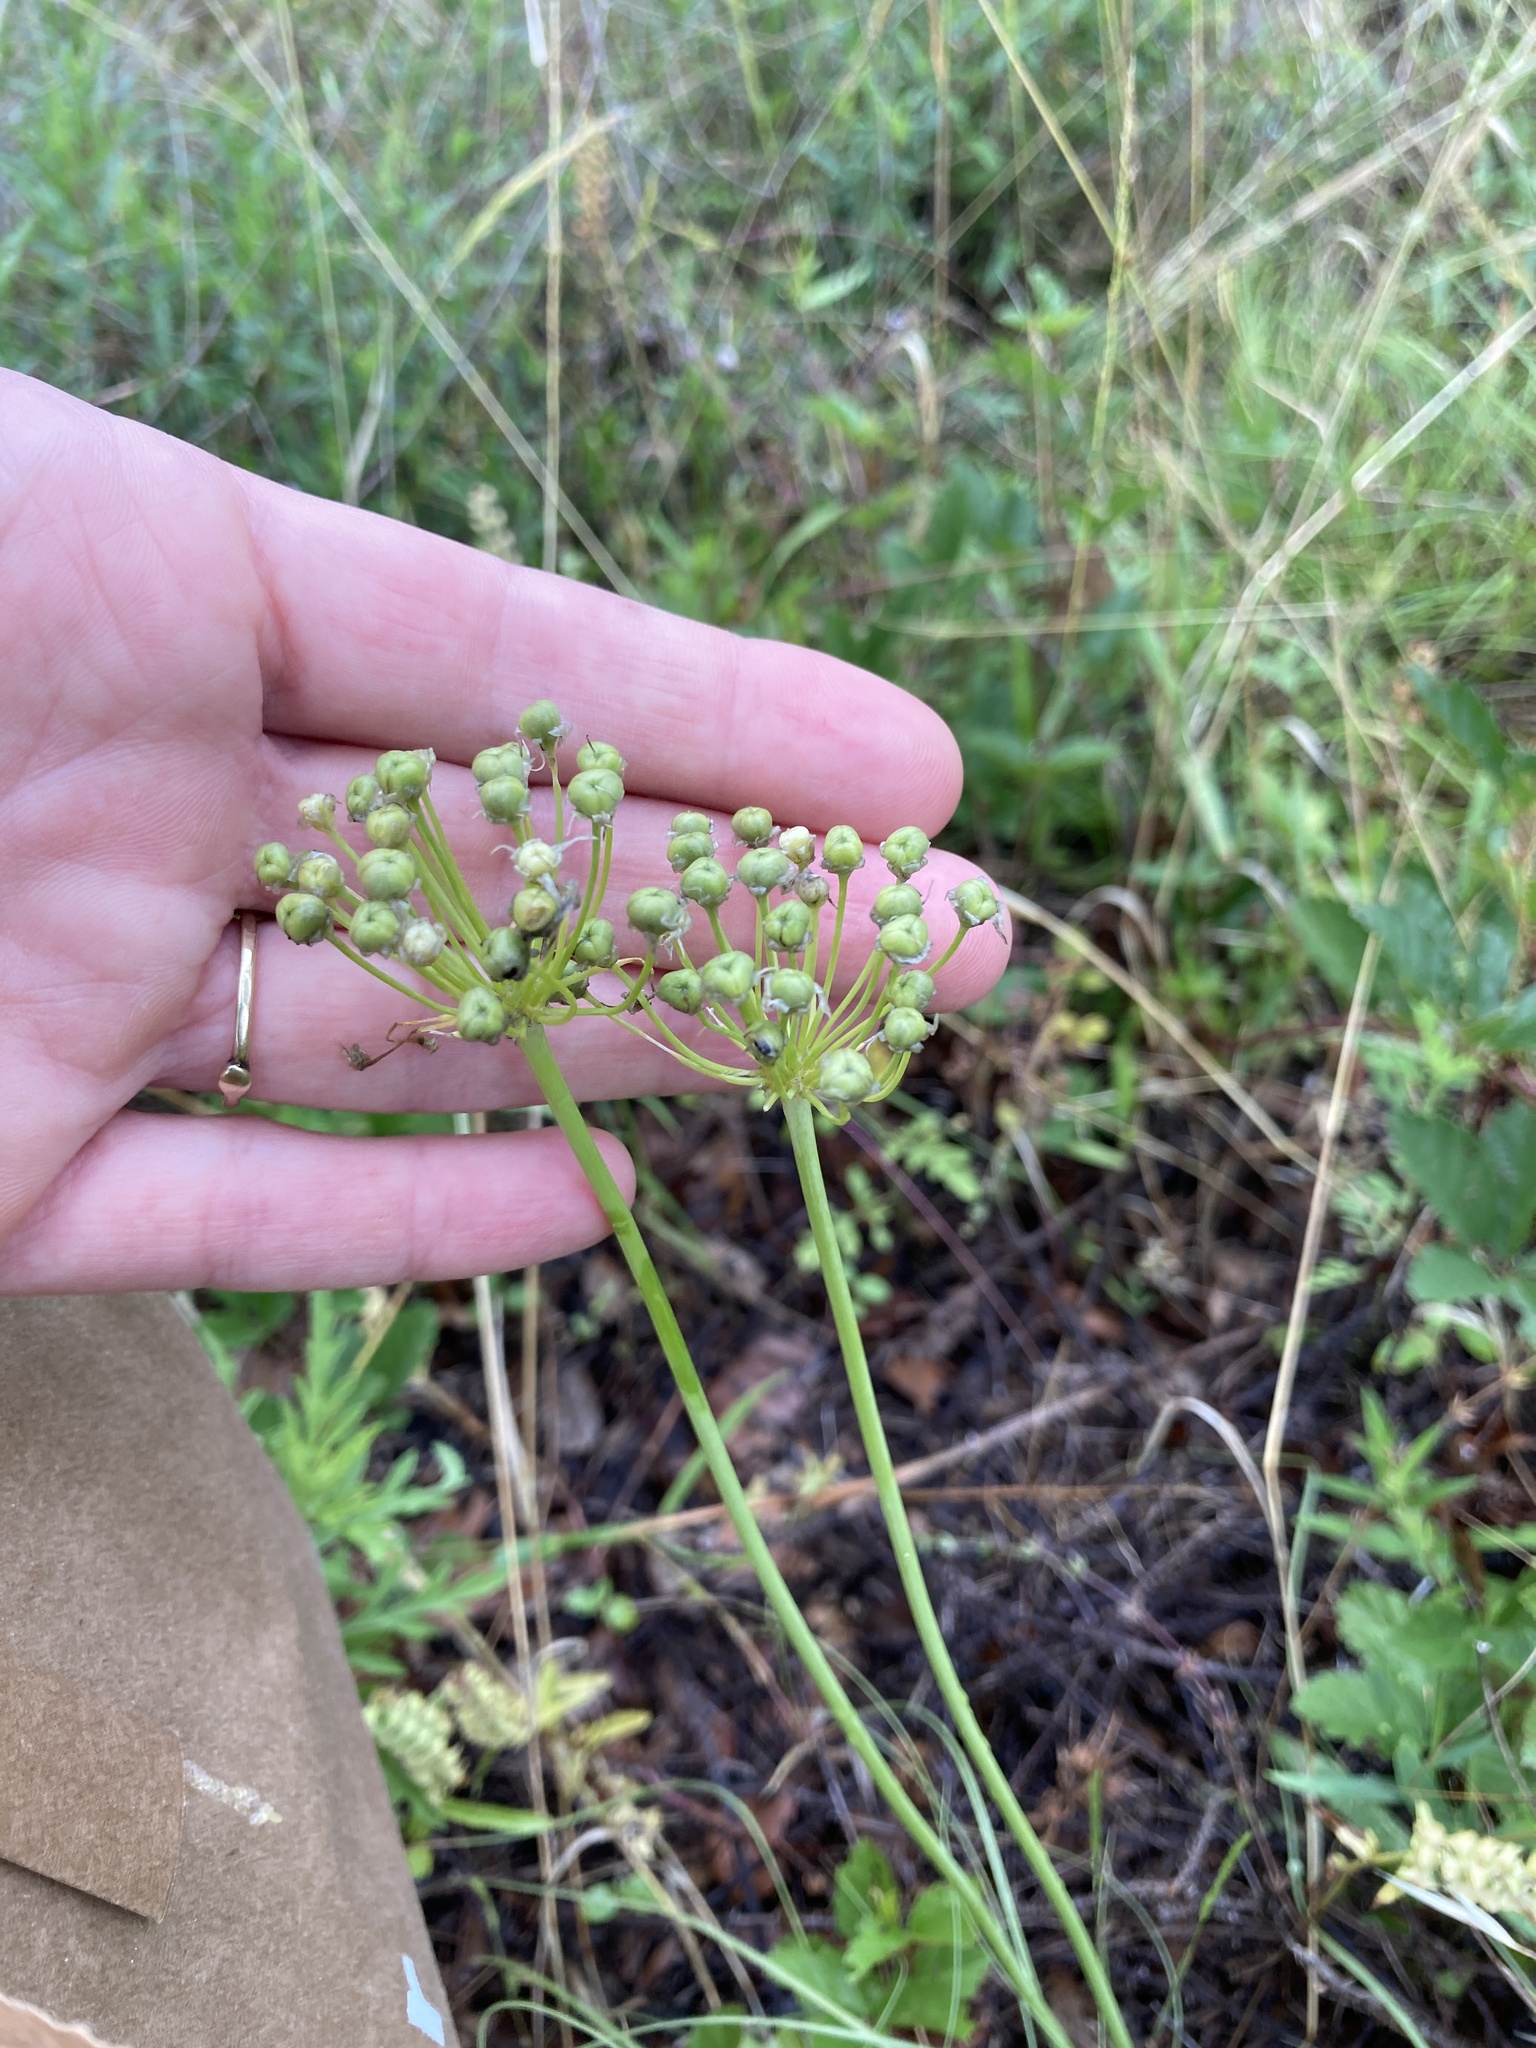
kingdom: Plantae
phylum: Tracheophyta
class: Liliopsida
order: Asparagales
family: Amaryllidaceae
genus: Allium
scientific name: Allium fraseri
